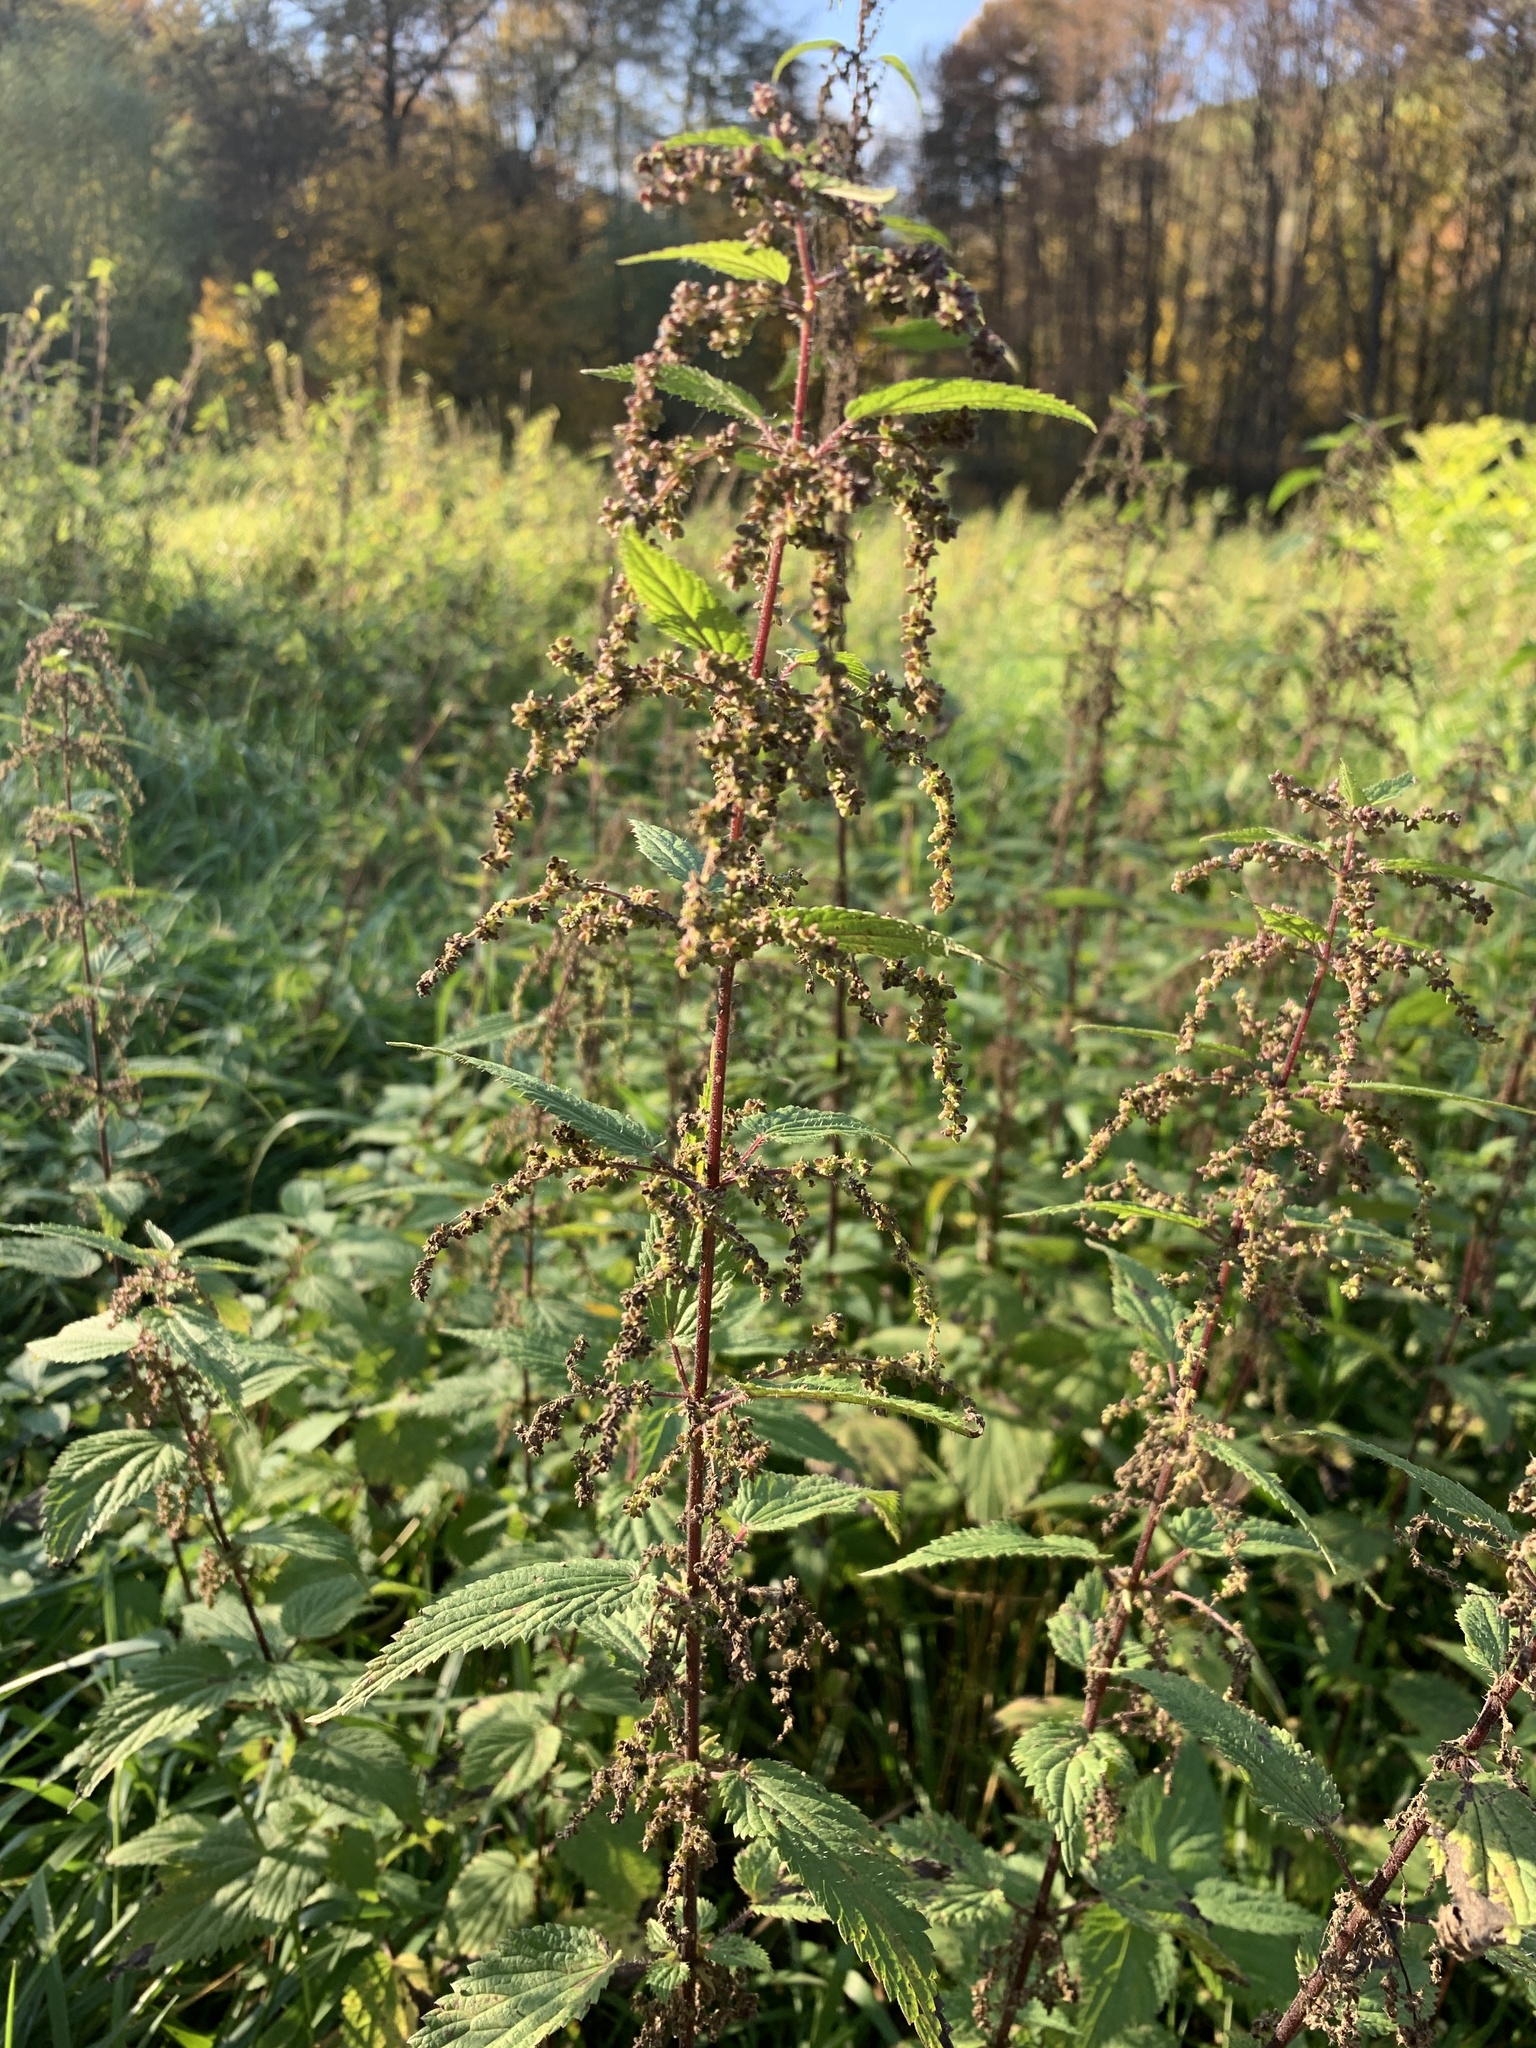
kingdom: Plantae
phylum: Tracheophyta
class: Magnoliopsida
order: Rosales
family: Urticaceae
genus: Urtica
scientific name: Urtica dioica
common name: Common nettle
